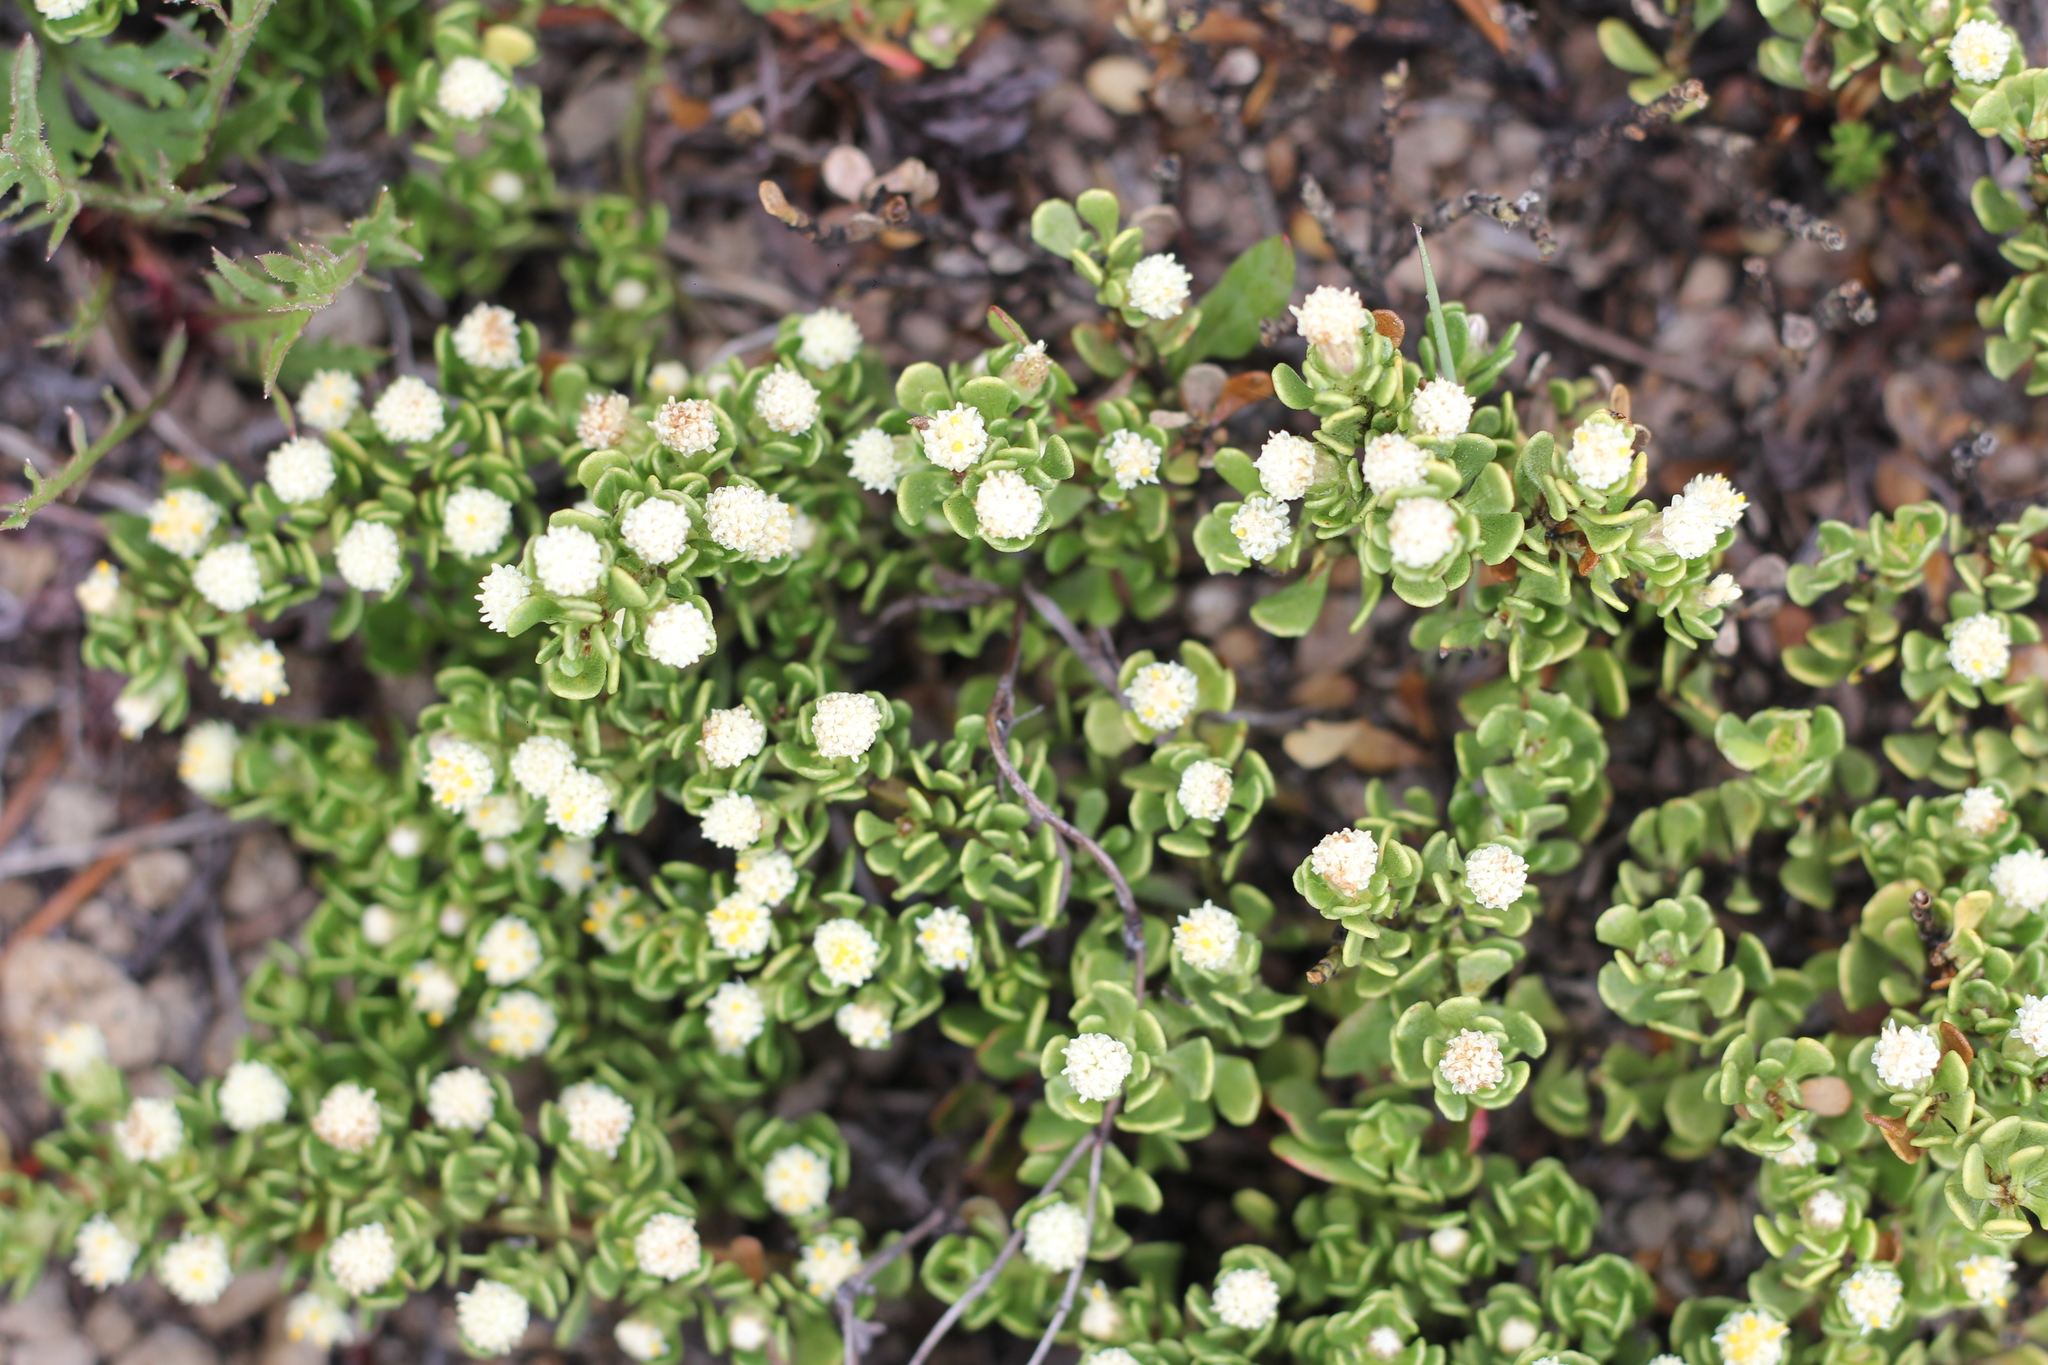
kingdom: Plantae
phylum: Tracheophyta
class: Magnoliopsida
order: Asterales
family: Asteraceae
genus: Baccharis
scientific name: Baccharis magellanica
